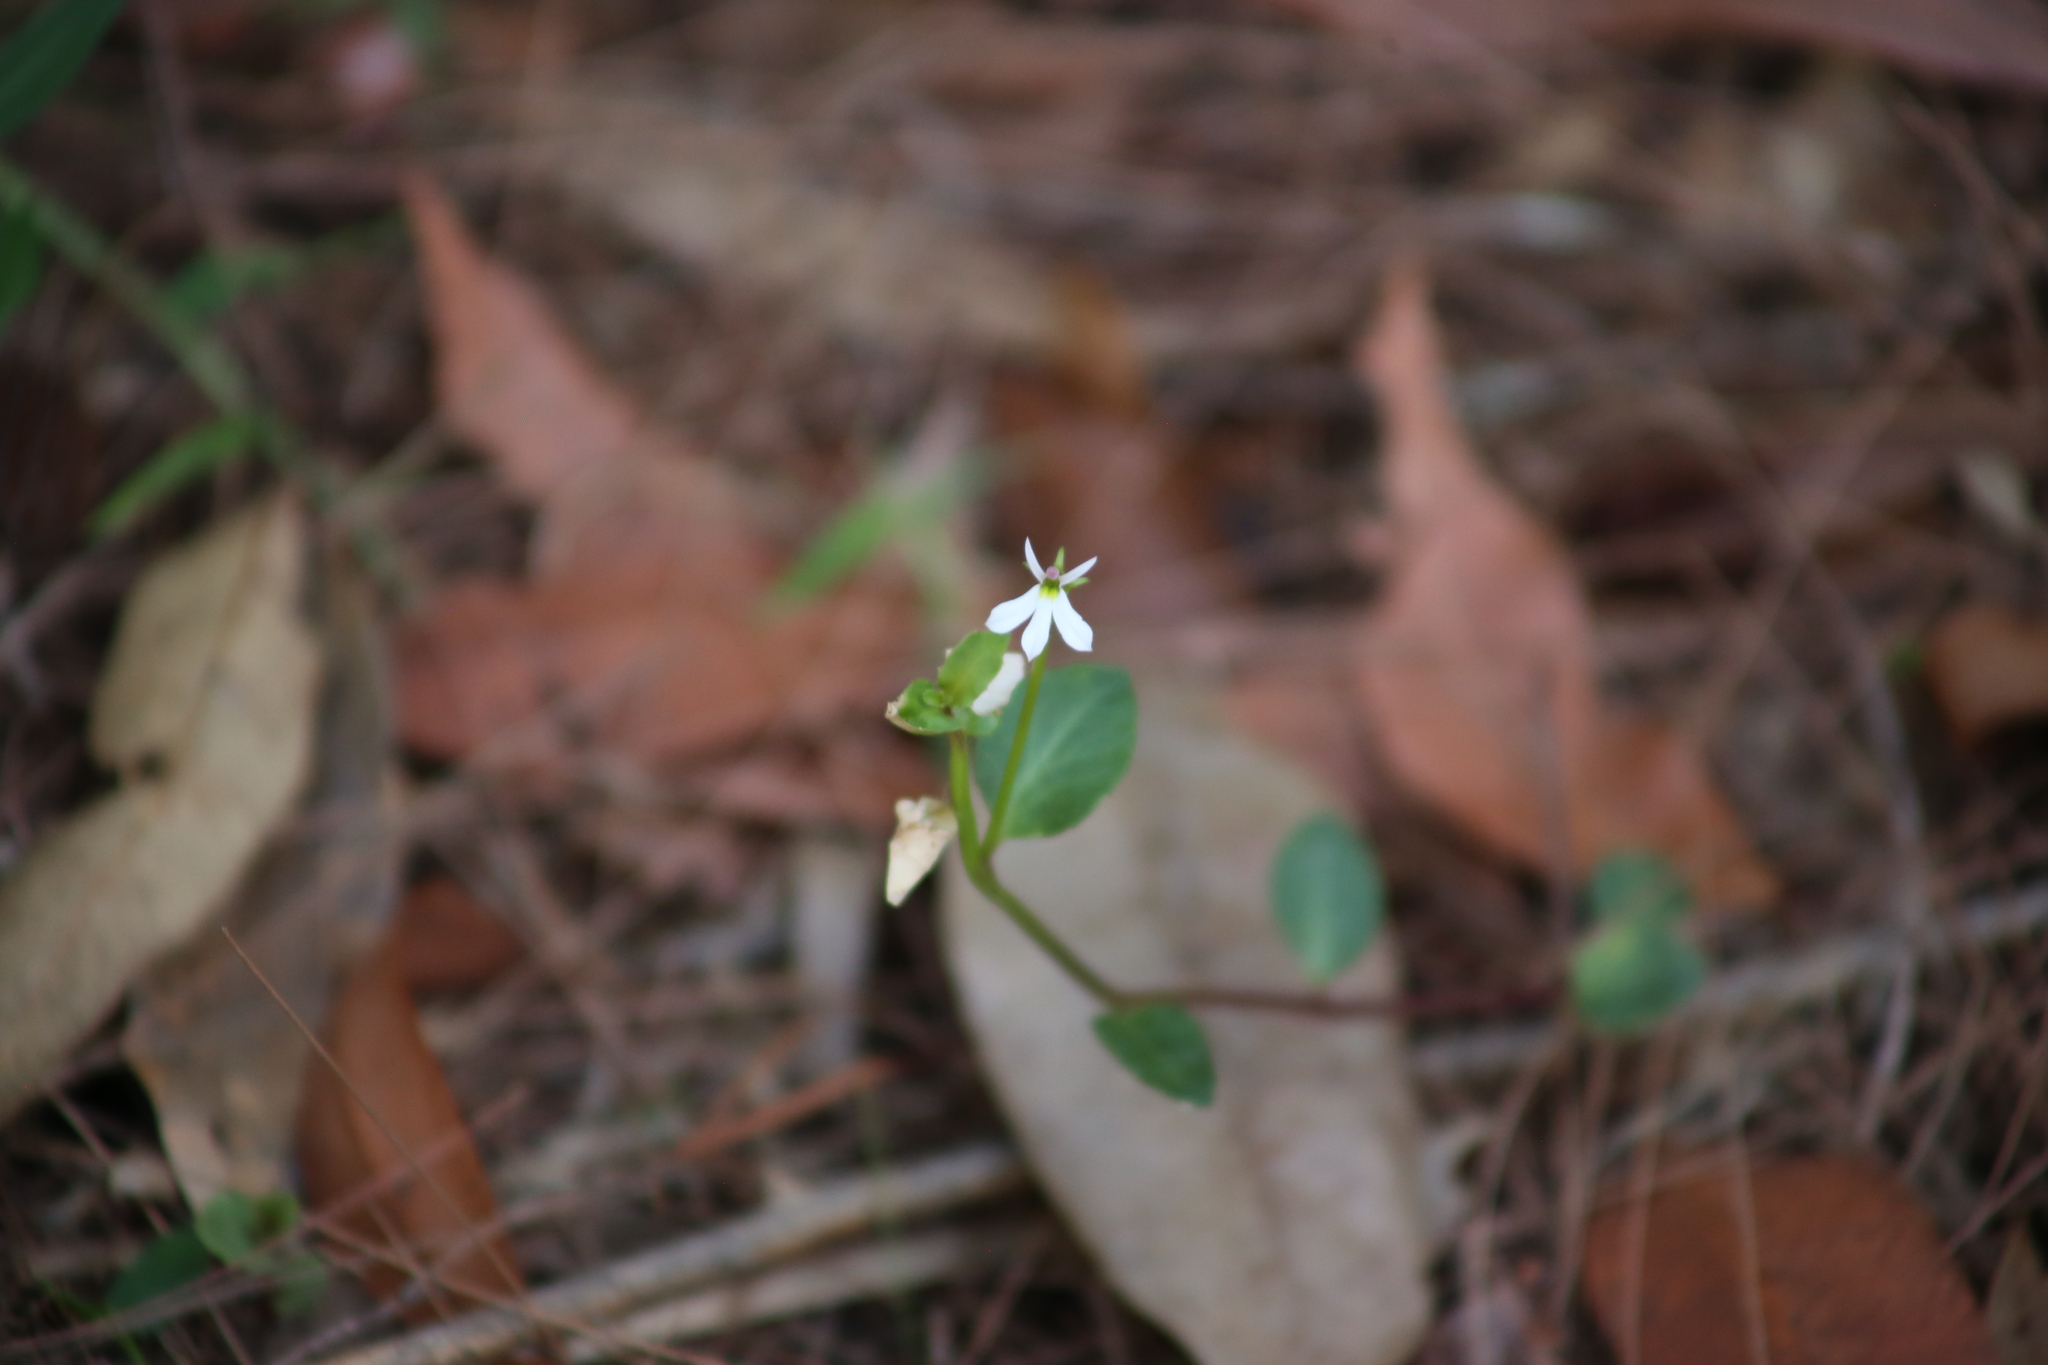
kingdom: Plantae
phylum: Tracheophyta
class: Magnoliopsida
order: Asterales
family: Campanulaceae
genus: Lobelia
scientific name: Lobelia purpurascens
